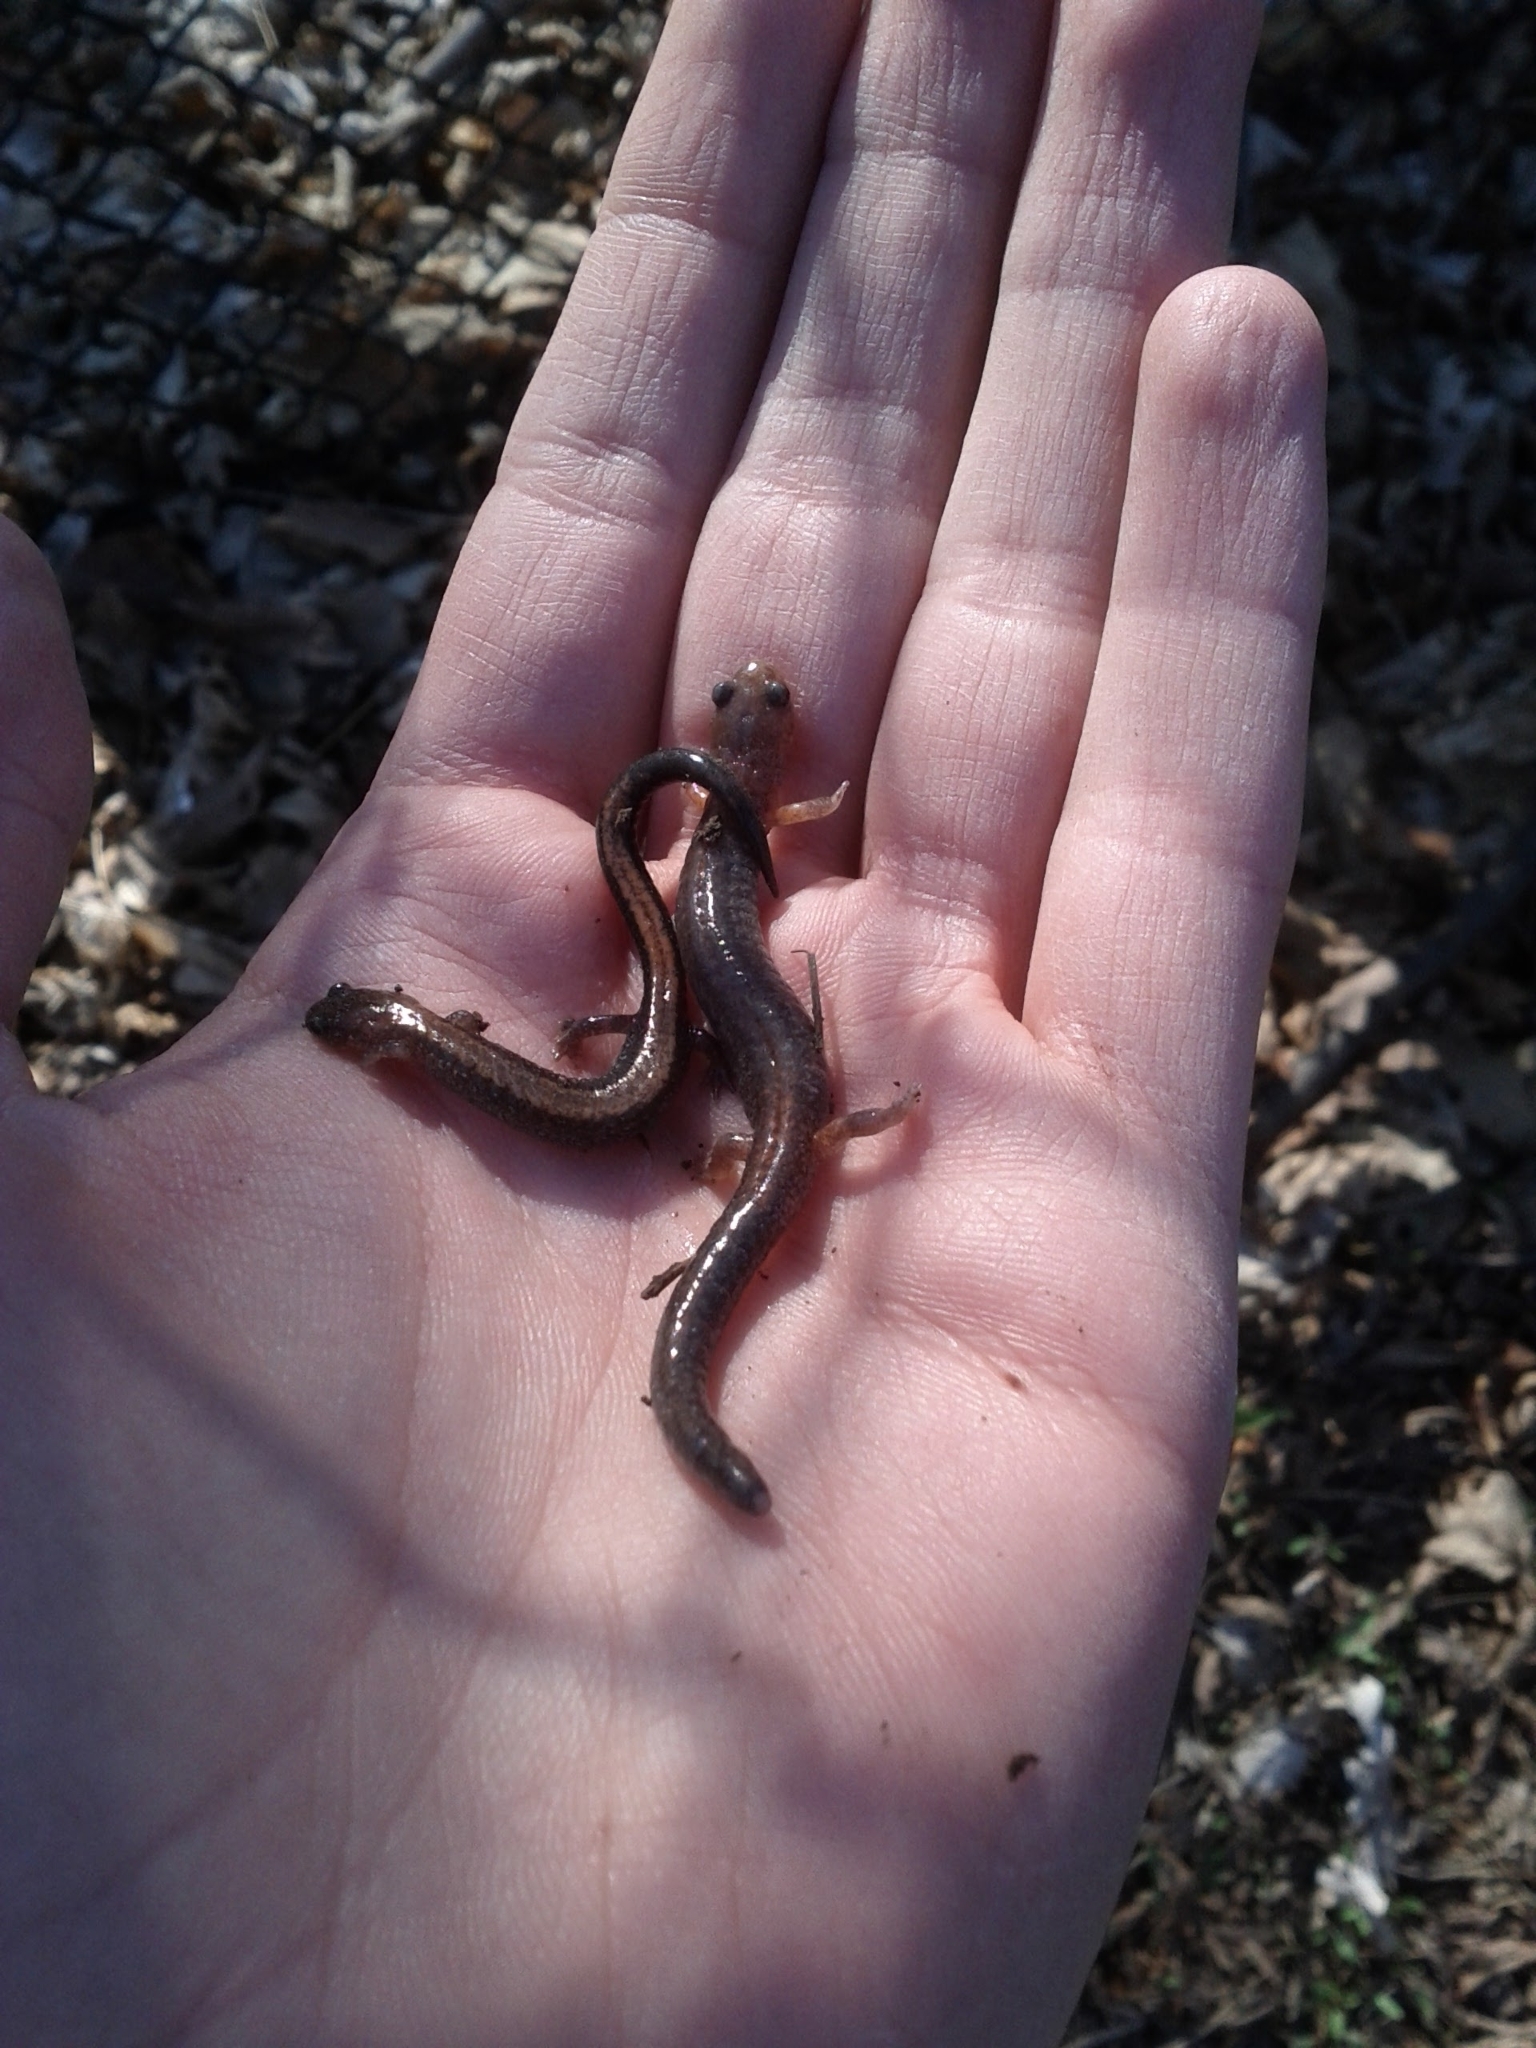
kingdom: Animalia
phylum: Chordata
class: Amphibia
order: Caudata
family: Plethodontidae
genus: Plethodon
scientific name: Plethodon cinereus
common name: Redback salamander
